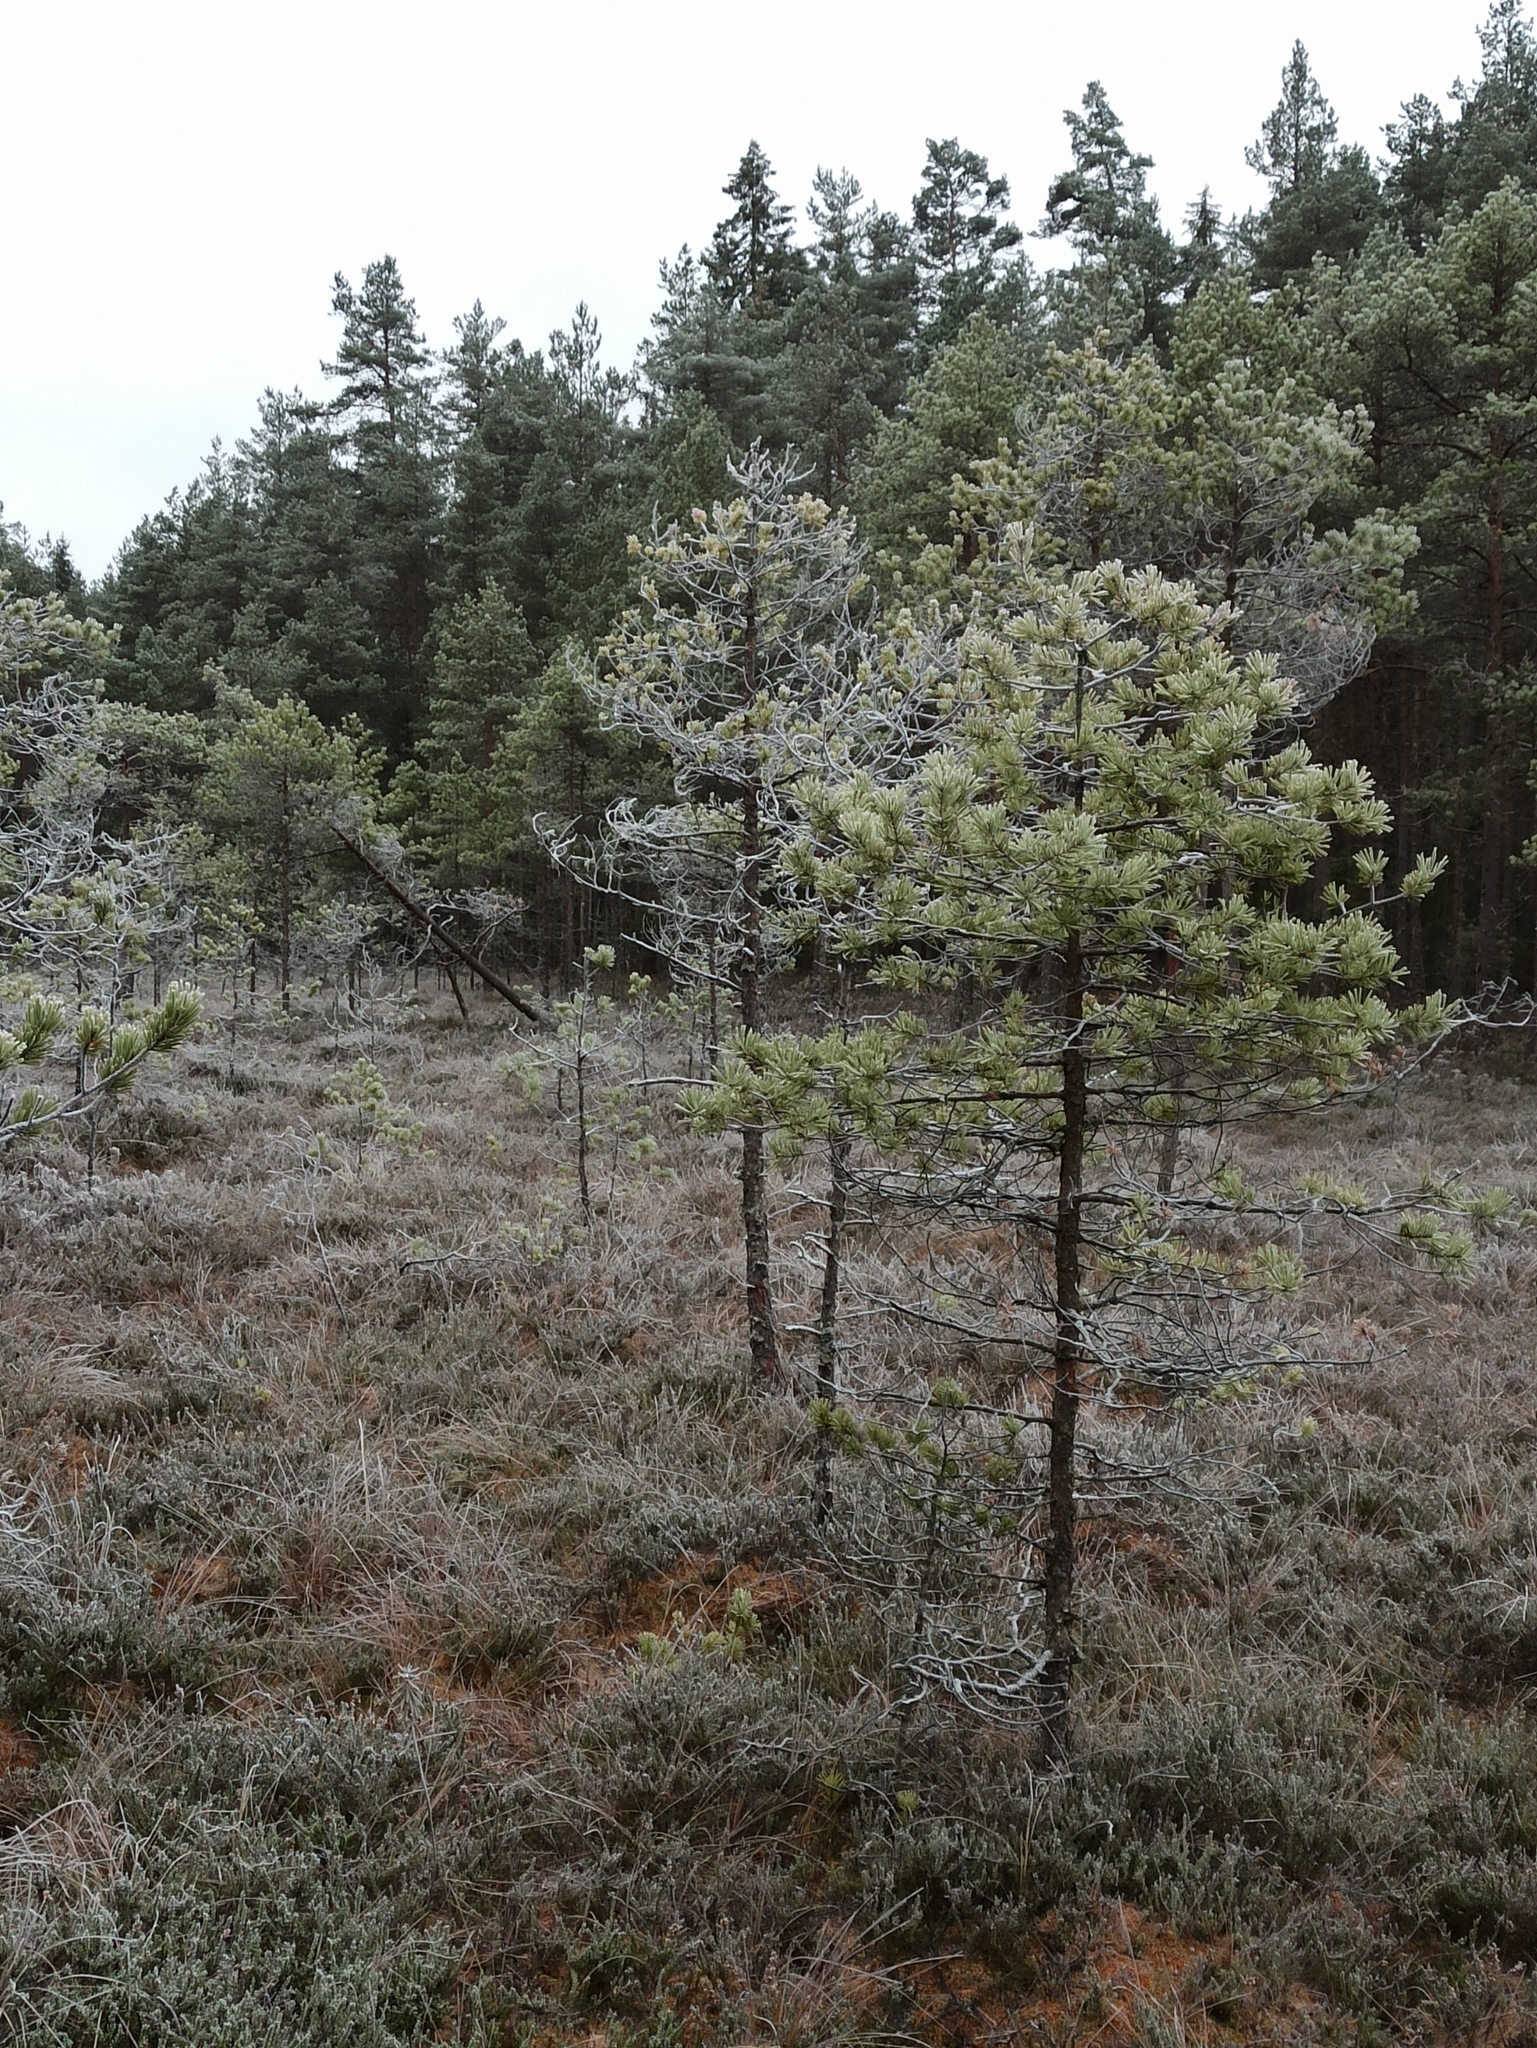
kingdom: Plantae
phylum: Tracheophyta
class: Pinopsida
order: Pinales
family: Pinaceae
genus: Pinus
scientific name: Pinus sylvestris
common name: Scots pine
